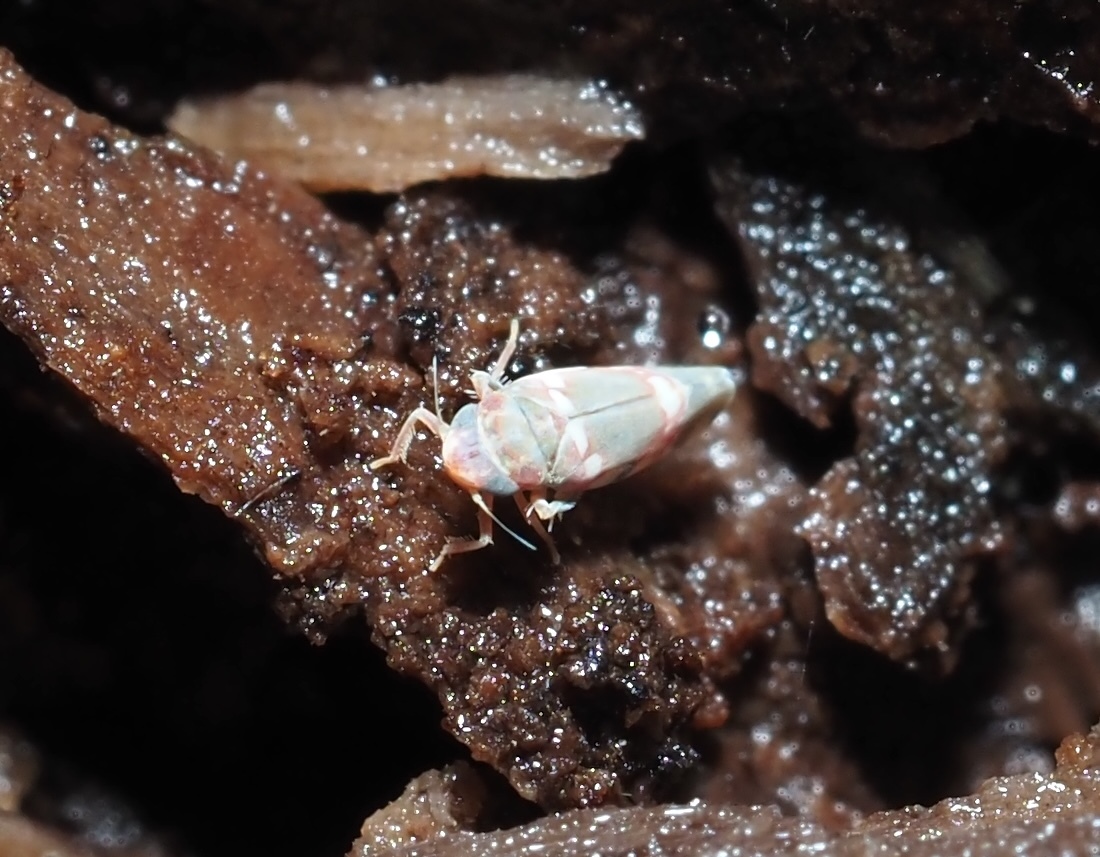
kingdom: Animalia
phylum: Arthropoda
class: Insecta
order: Hemiptera
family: Cicadellidae
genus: Erythroneura
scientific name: Erythroneura vitis
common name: Grapevine leafhopper
